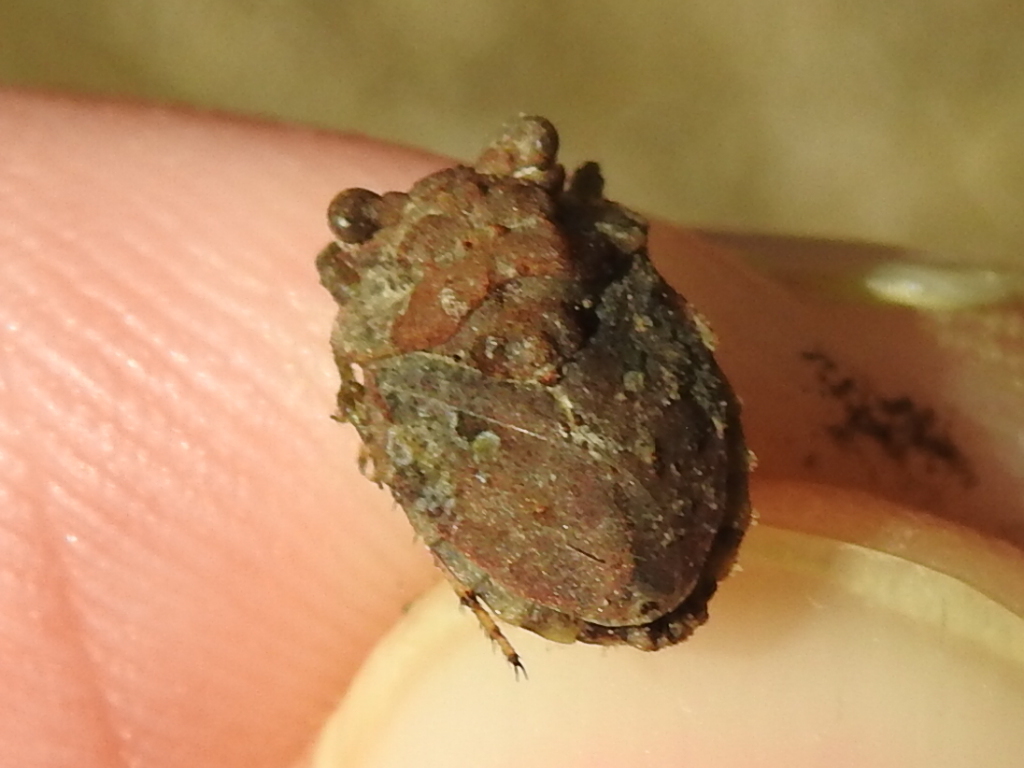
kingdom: Animalia
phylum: Arthropoda
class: Insecta
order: Hemiptera
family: Gelastocoridae
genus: Gelastocoris
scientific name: Gelastocoris oculatus
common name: Toad bug
